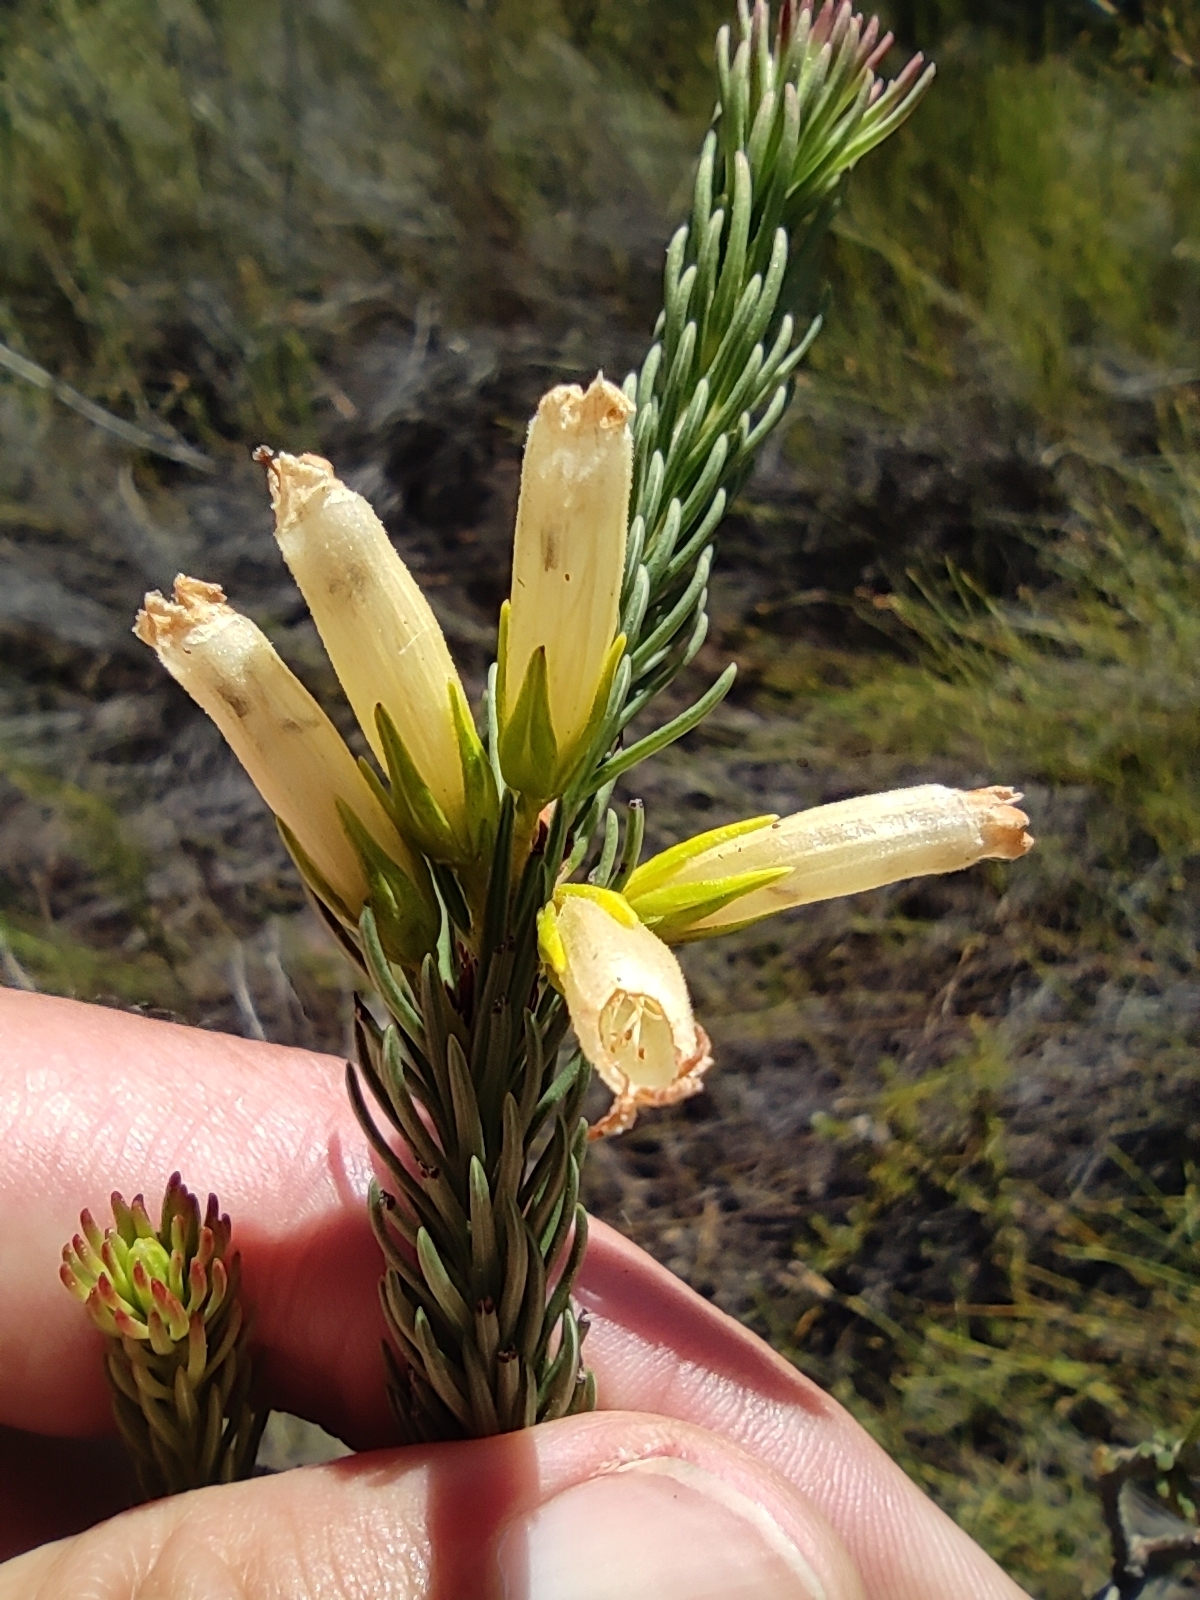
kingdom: Plantae
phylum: Tracheophyta
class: Magnoliopsida
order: Ericales
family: Ericaceae
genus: Erica
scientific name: Erica
